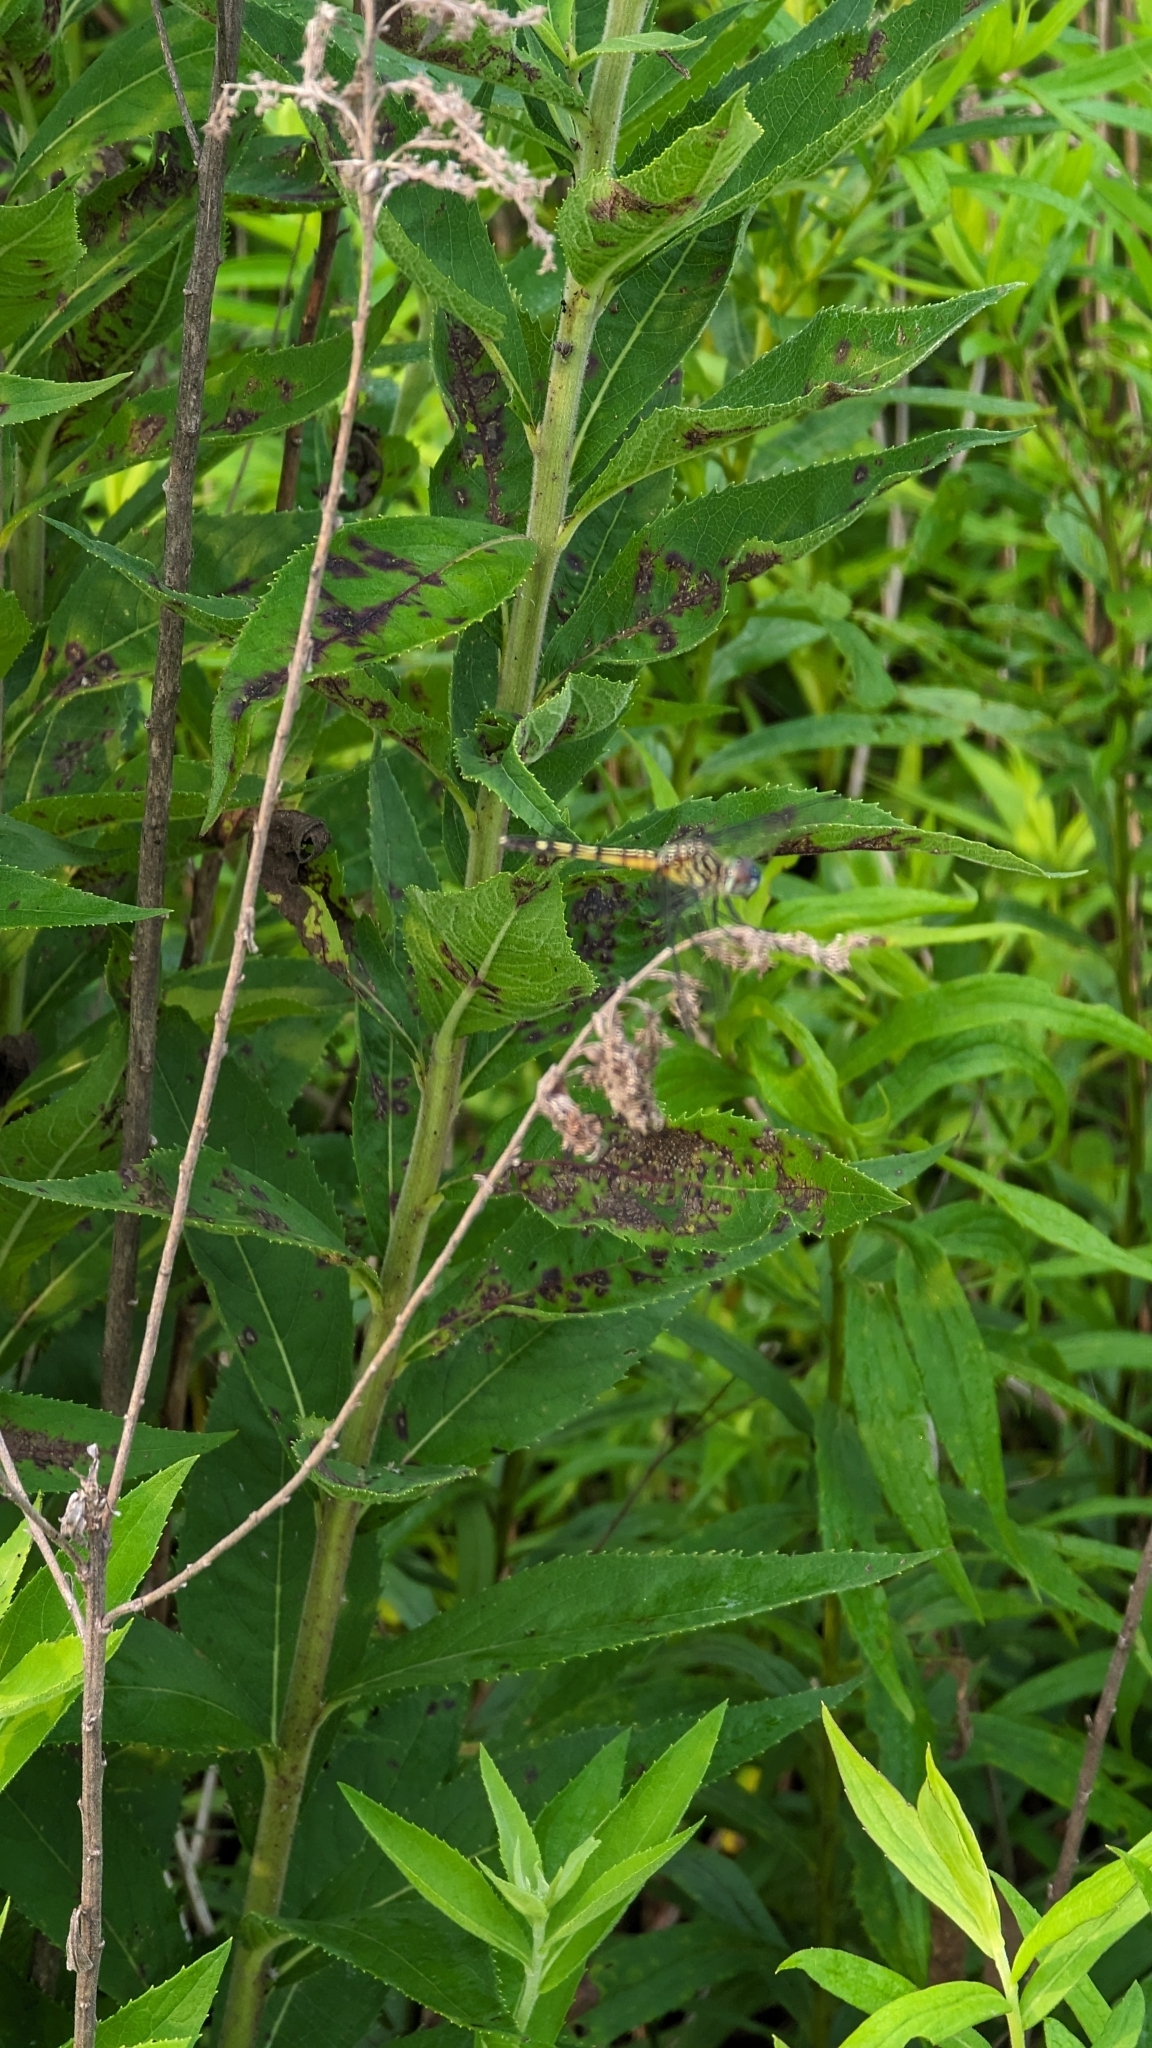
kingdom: Animalia
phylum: Arthropoda
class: Insecta
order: Odonata
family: Libellulidae
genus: Pachydiplax
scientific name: Pachydiplax longipennis
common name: Blue dasher
